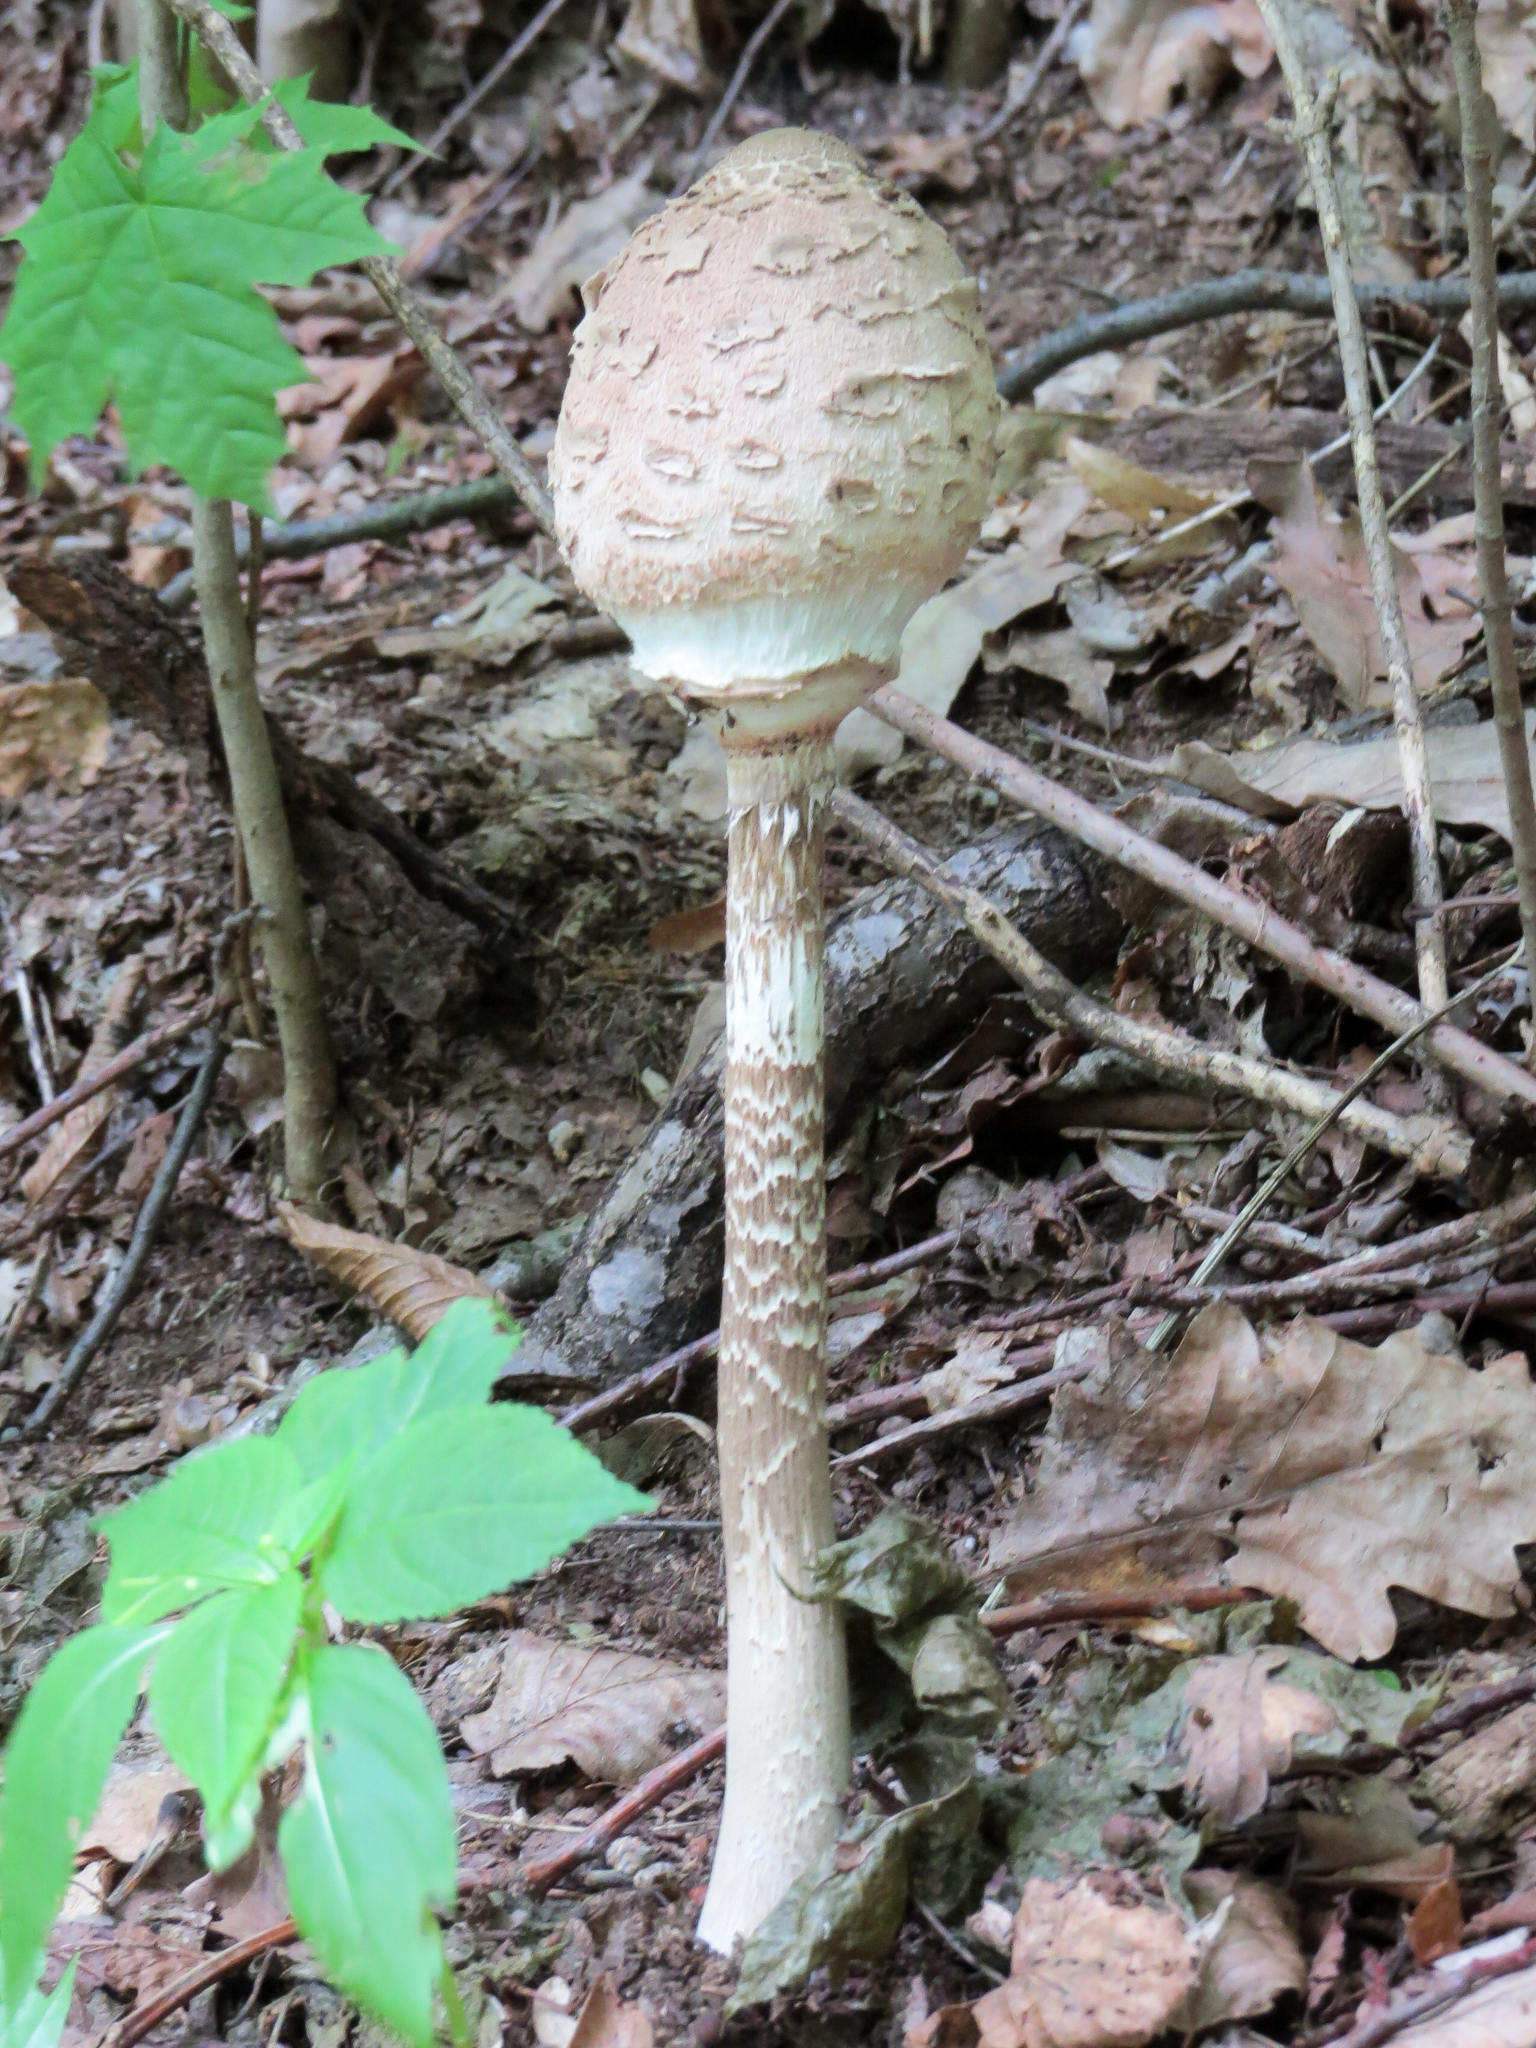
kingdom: Fungi
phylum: Basidiomycota
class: Agaricomycetes
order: Agaricales
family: Agaricaceae
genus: Macrolepiota
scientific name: Macrolepiota procera
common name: Parasol
